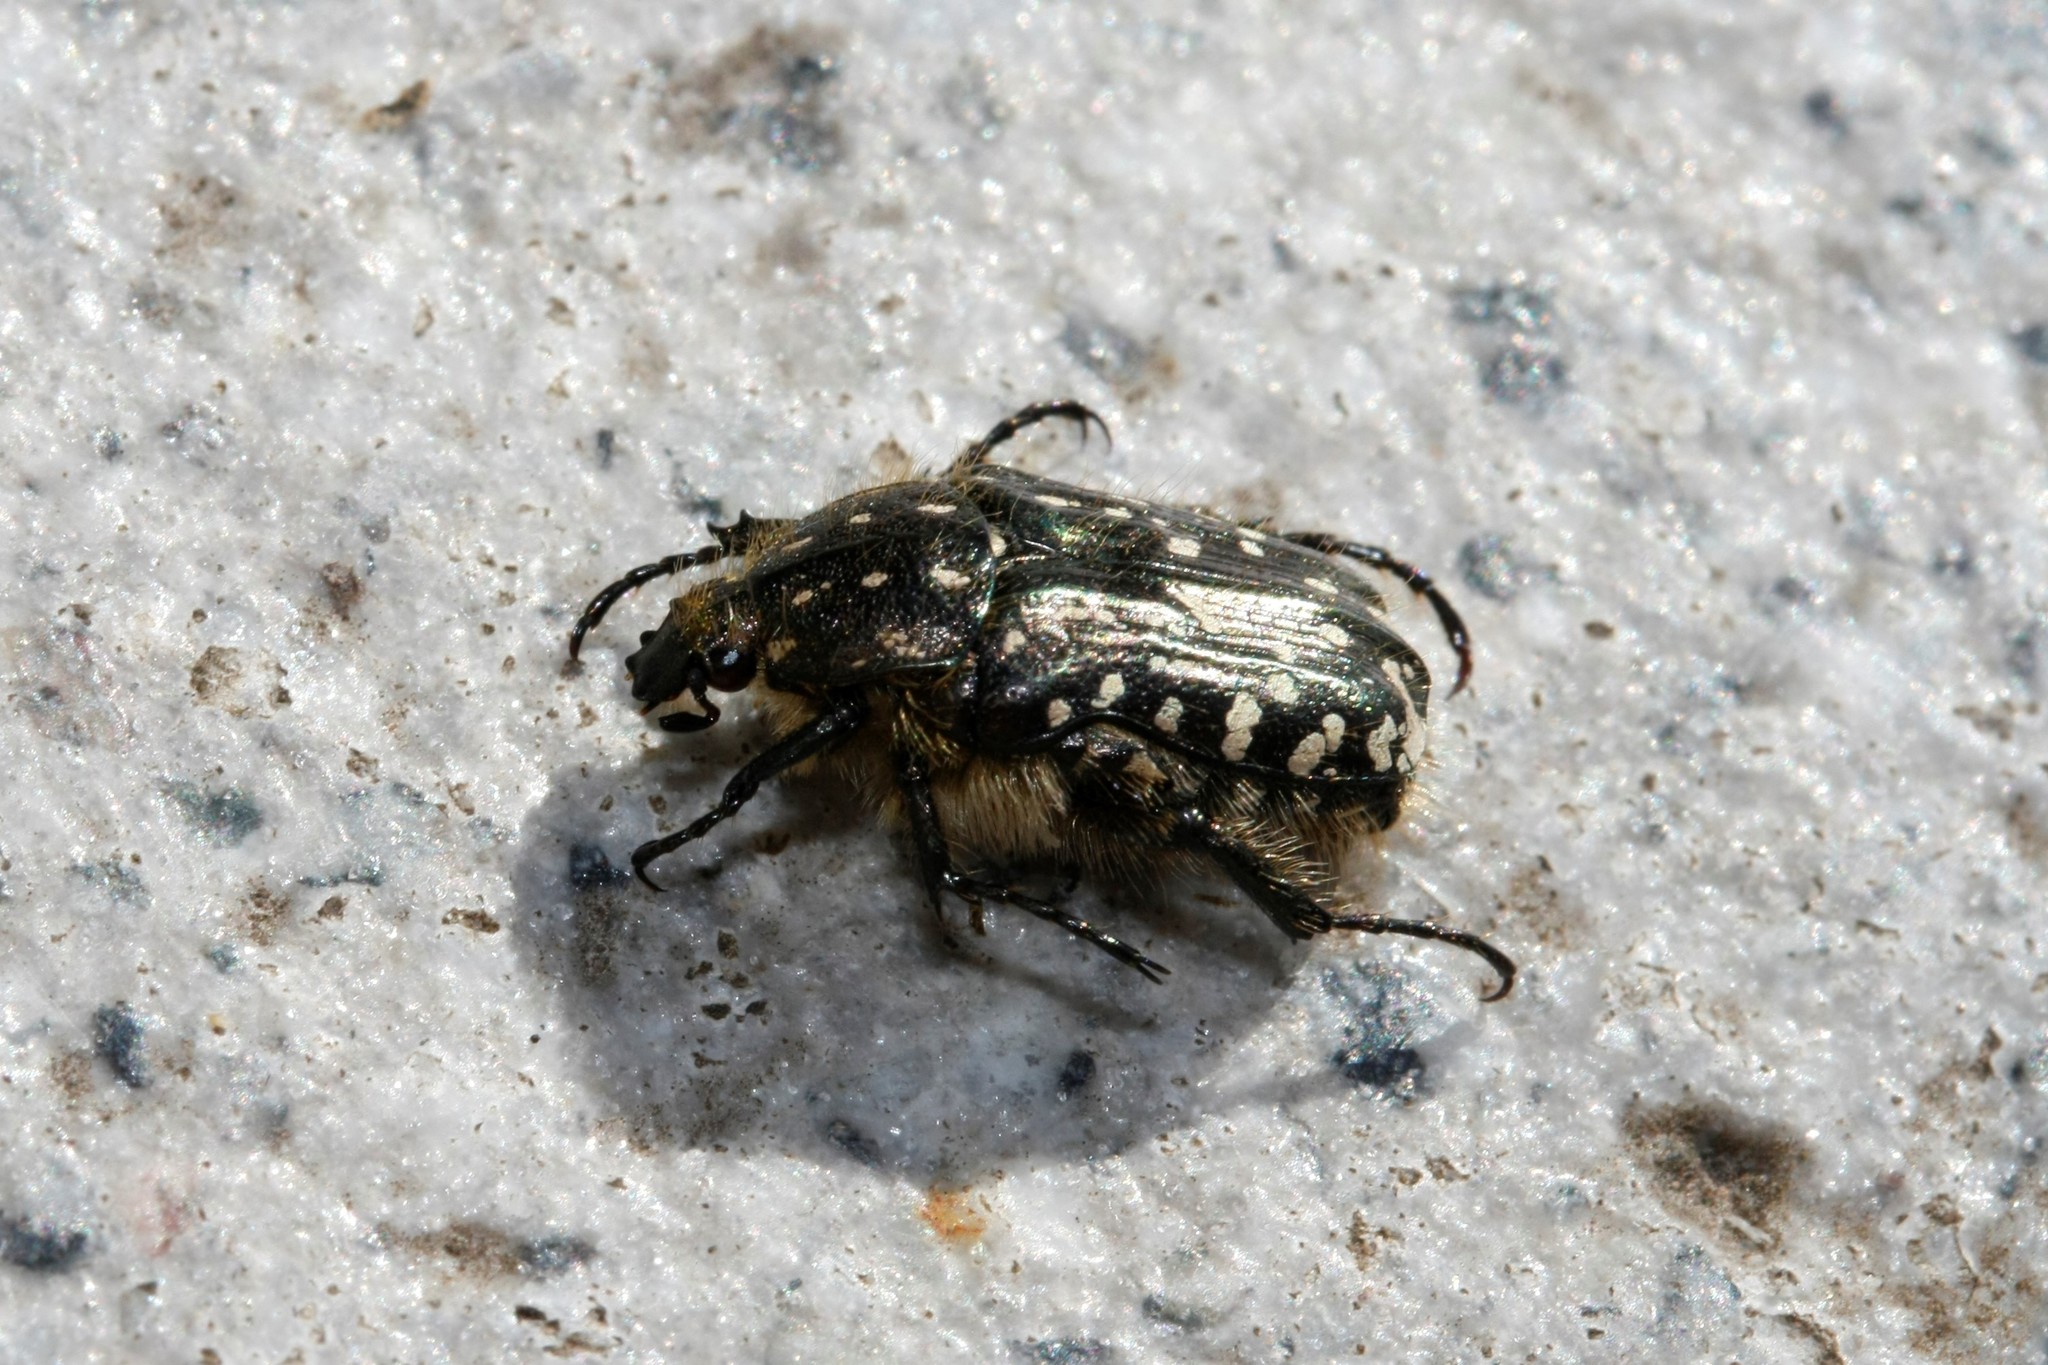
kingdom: Animalia
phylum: Arthropoda
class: Insecta
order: Coleoptera
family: Scarabaeidae
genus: Oxythyrea
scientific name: Oxythyrea funesta
